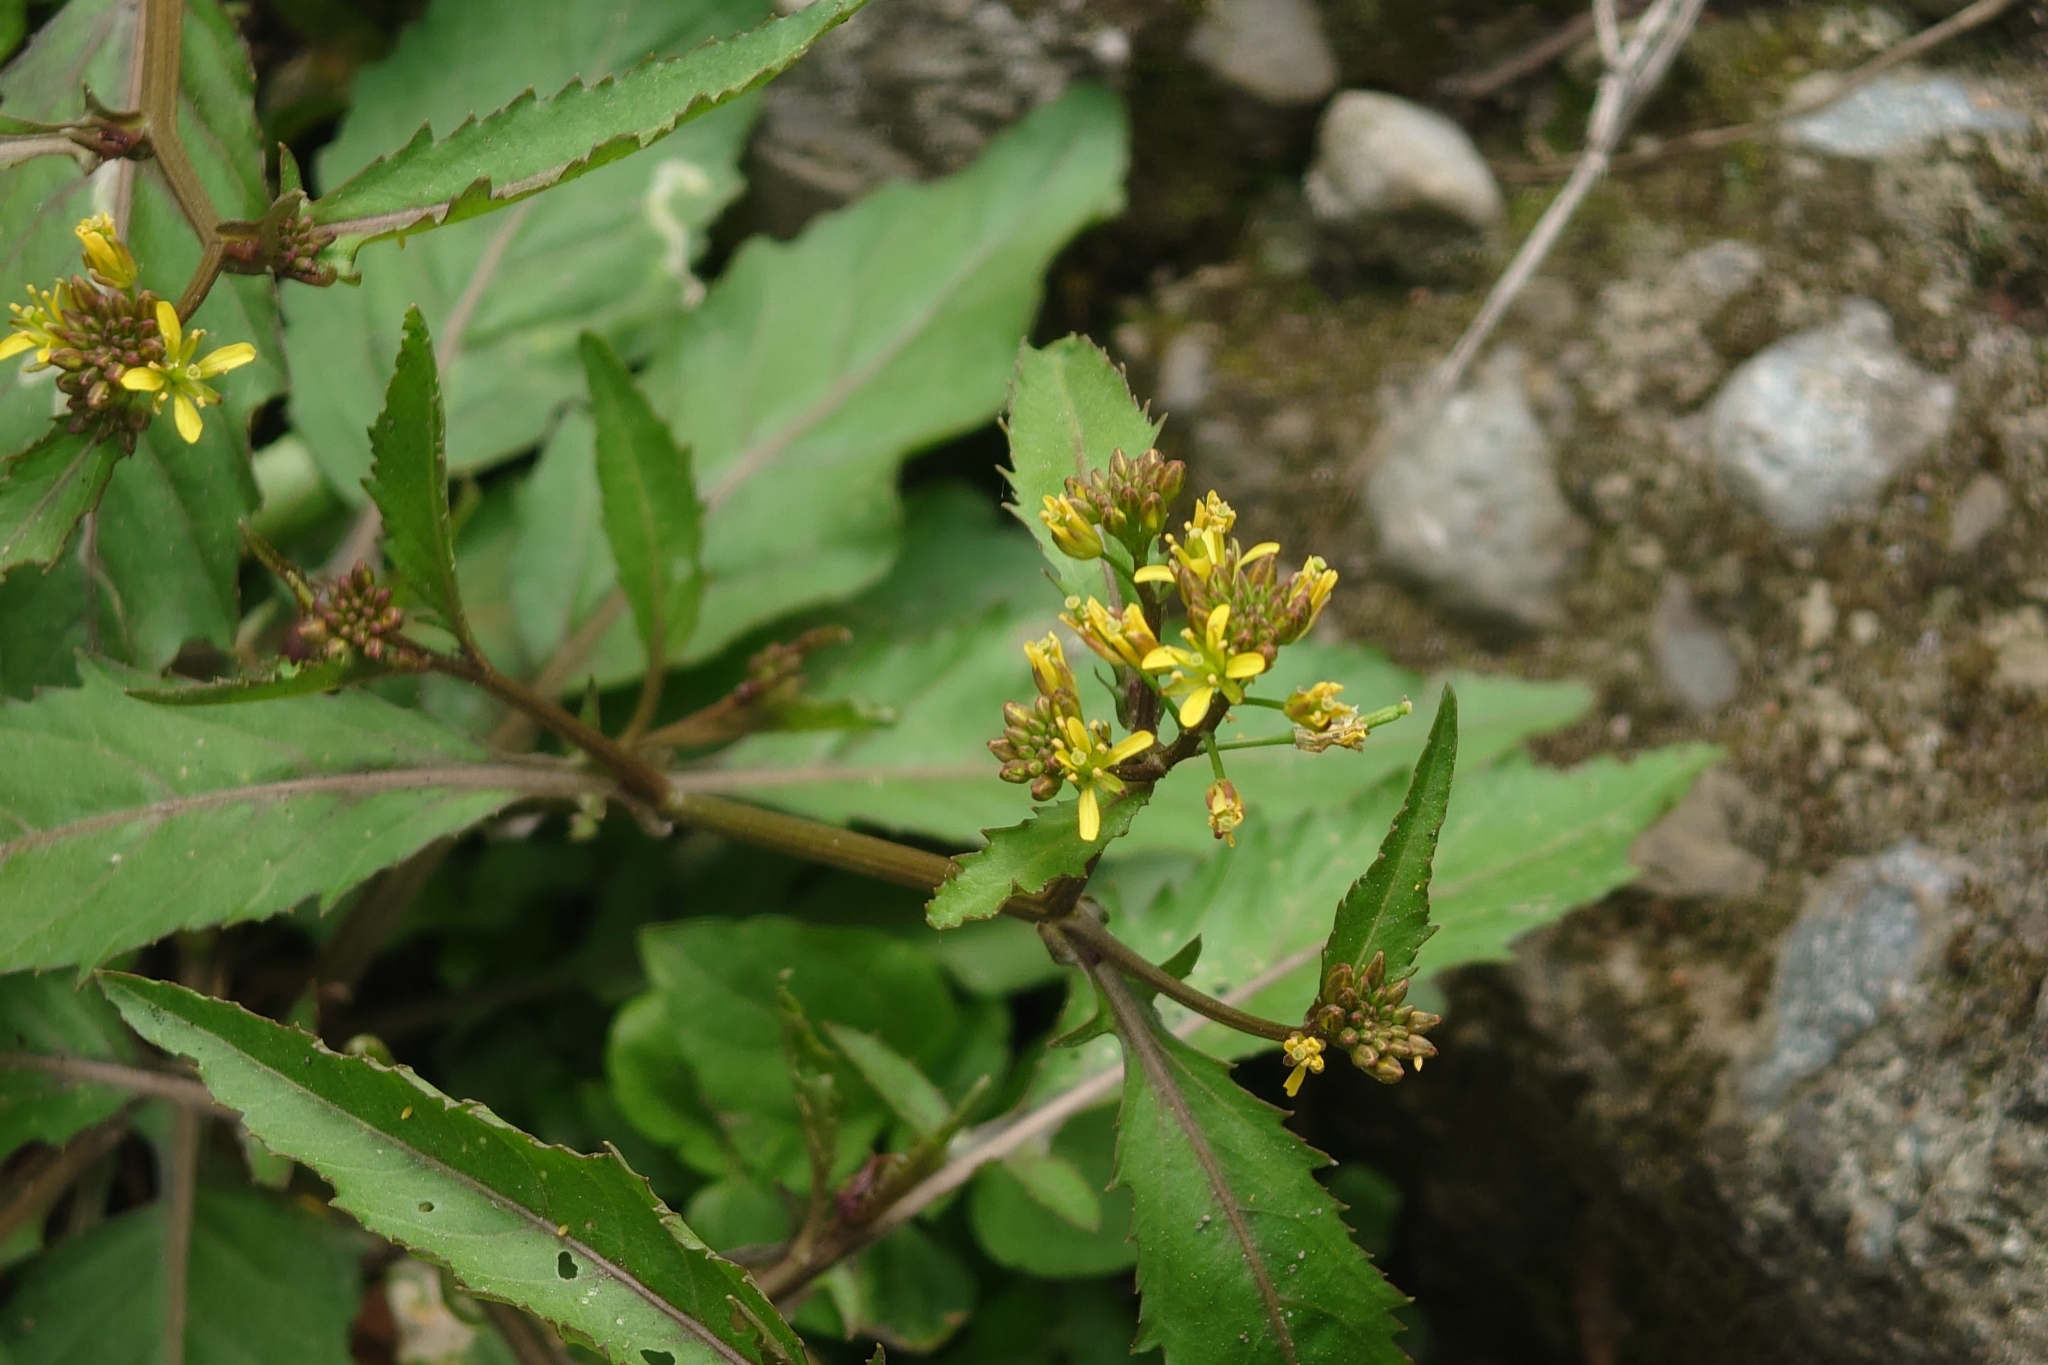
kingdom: Plantae
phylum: Tracheophyta
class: Magnoliopsida
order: Brassicales
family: Brassicaceae
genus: Rorippa
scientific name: Rorippa indica
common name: Variableleaf yellowcress
